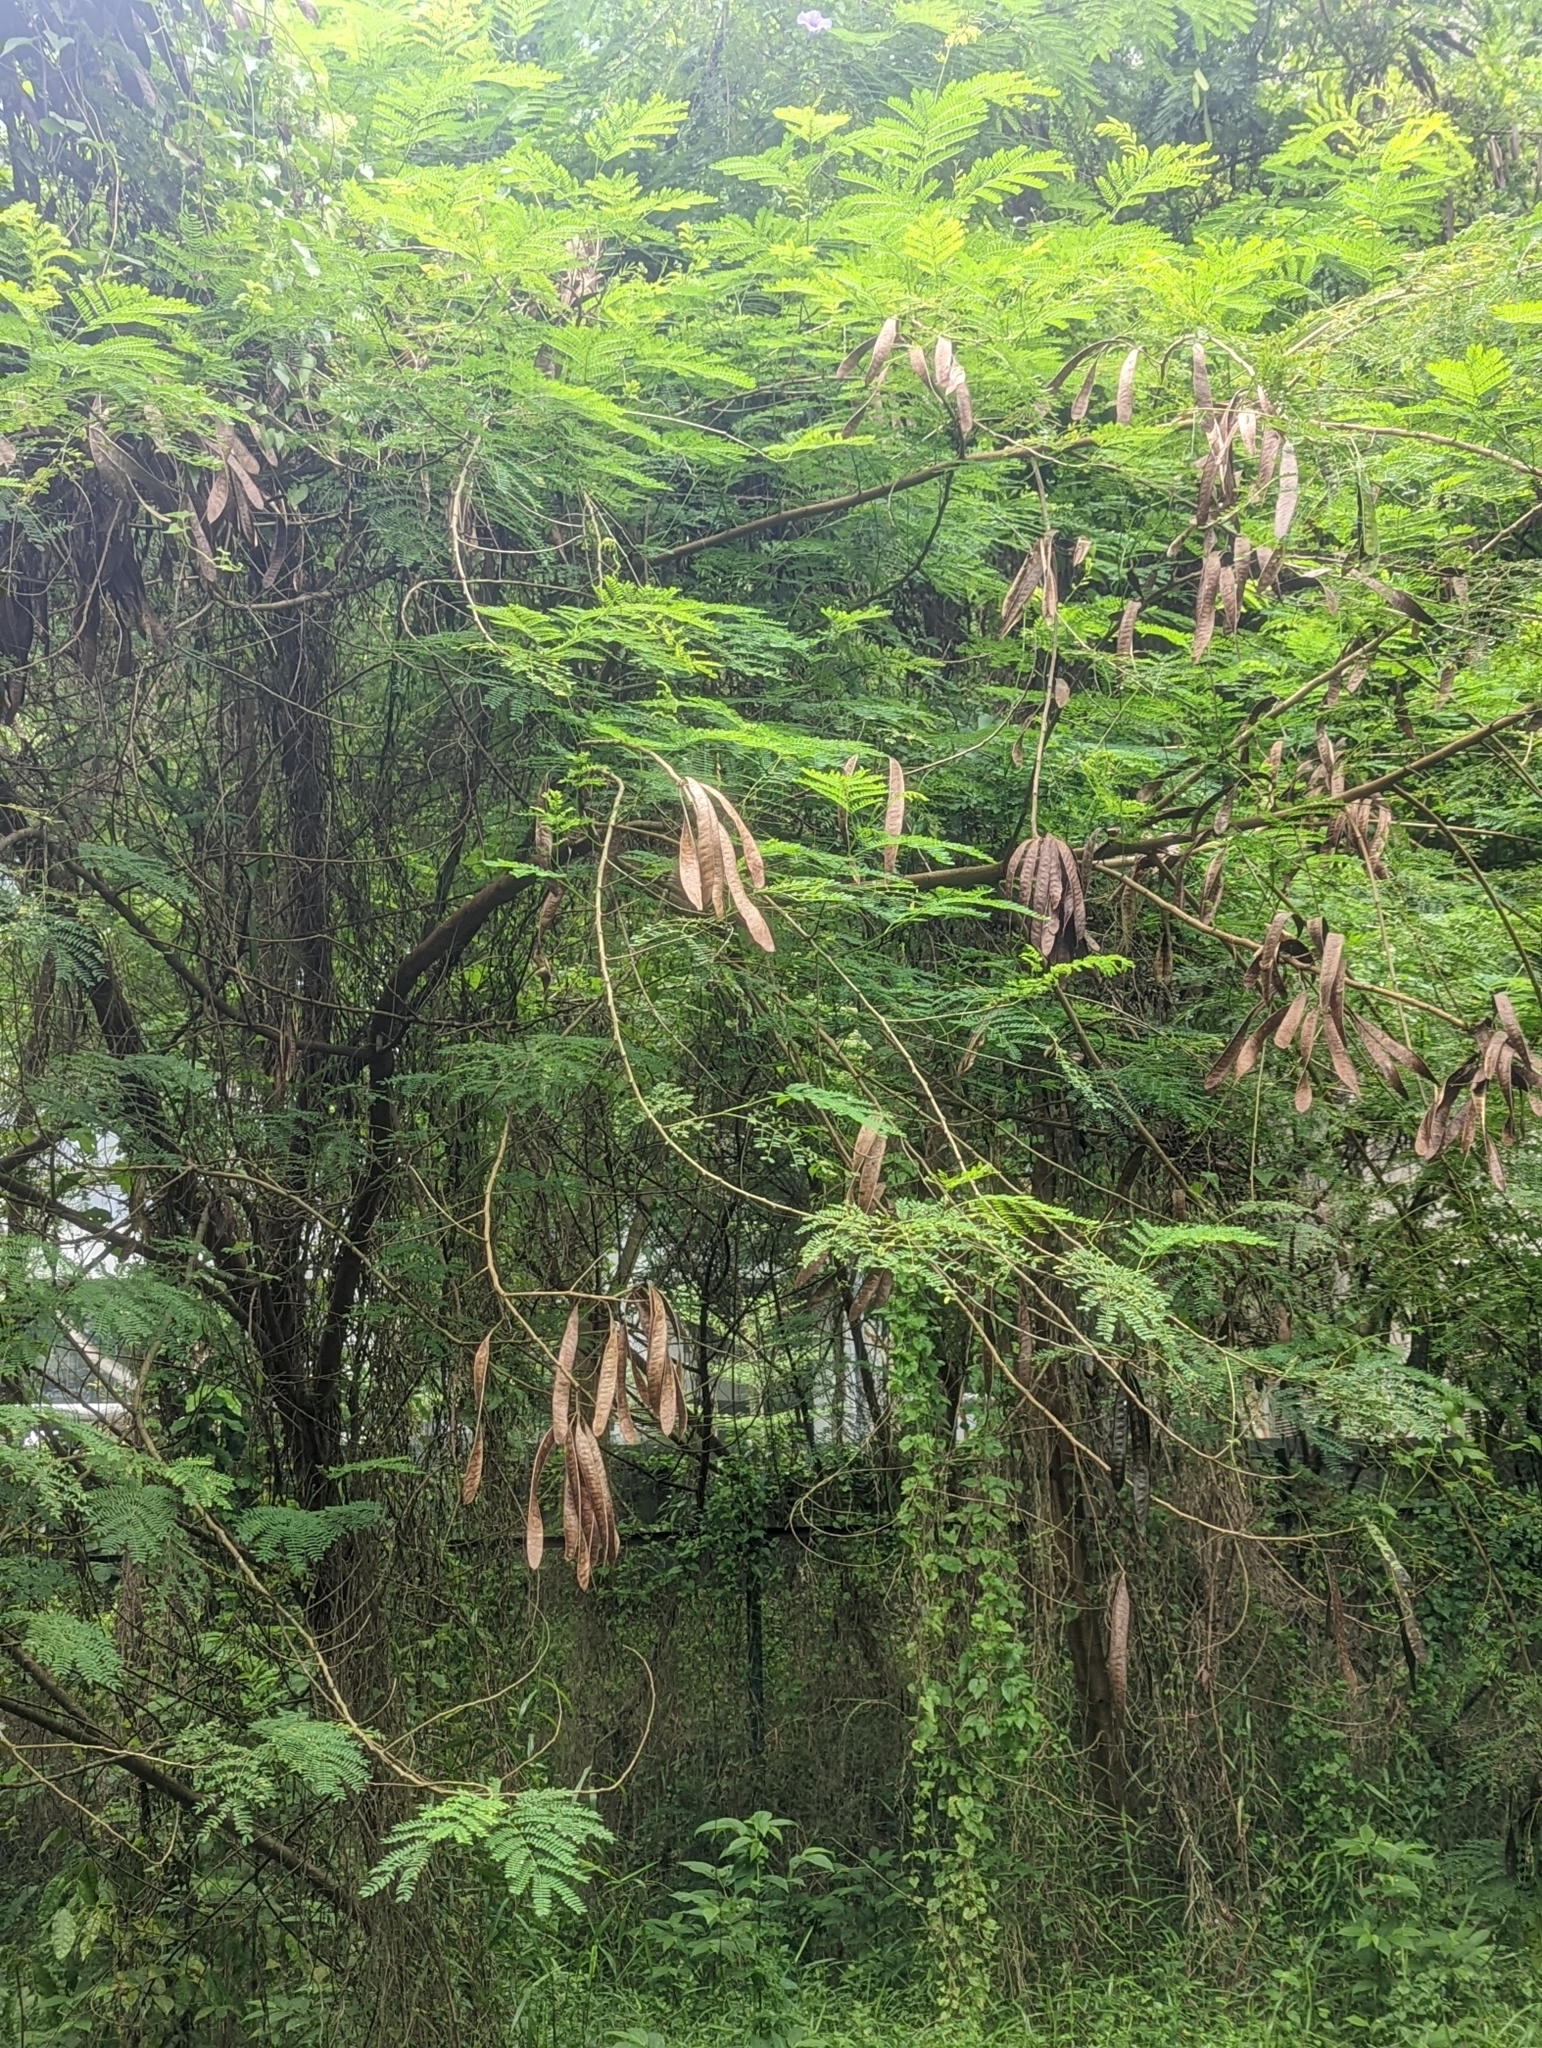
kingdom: Plantae
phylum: Tracheophyta
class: Magnoliopsida
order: Fabales
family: Fabaceae
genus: Leucaena
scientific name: Leucaena leucocephala
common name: White leadtree
